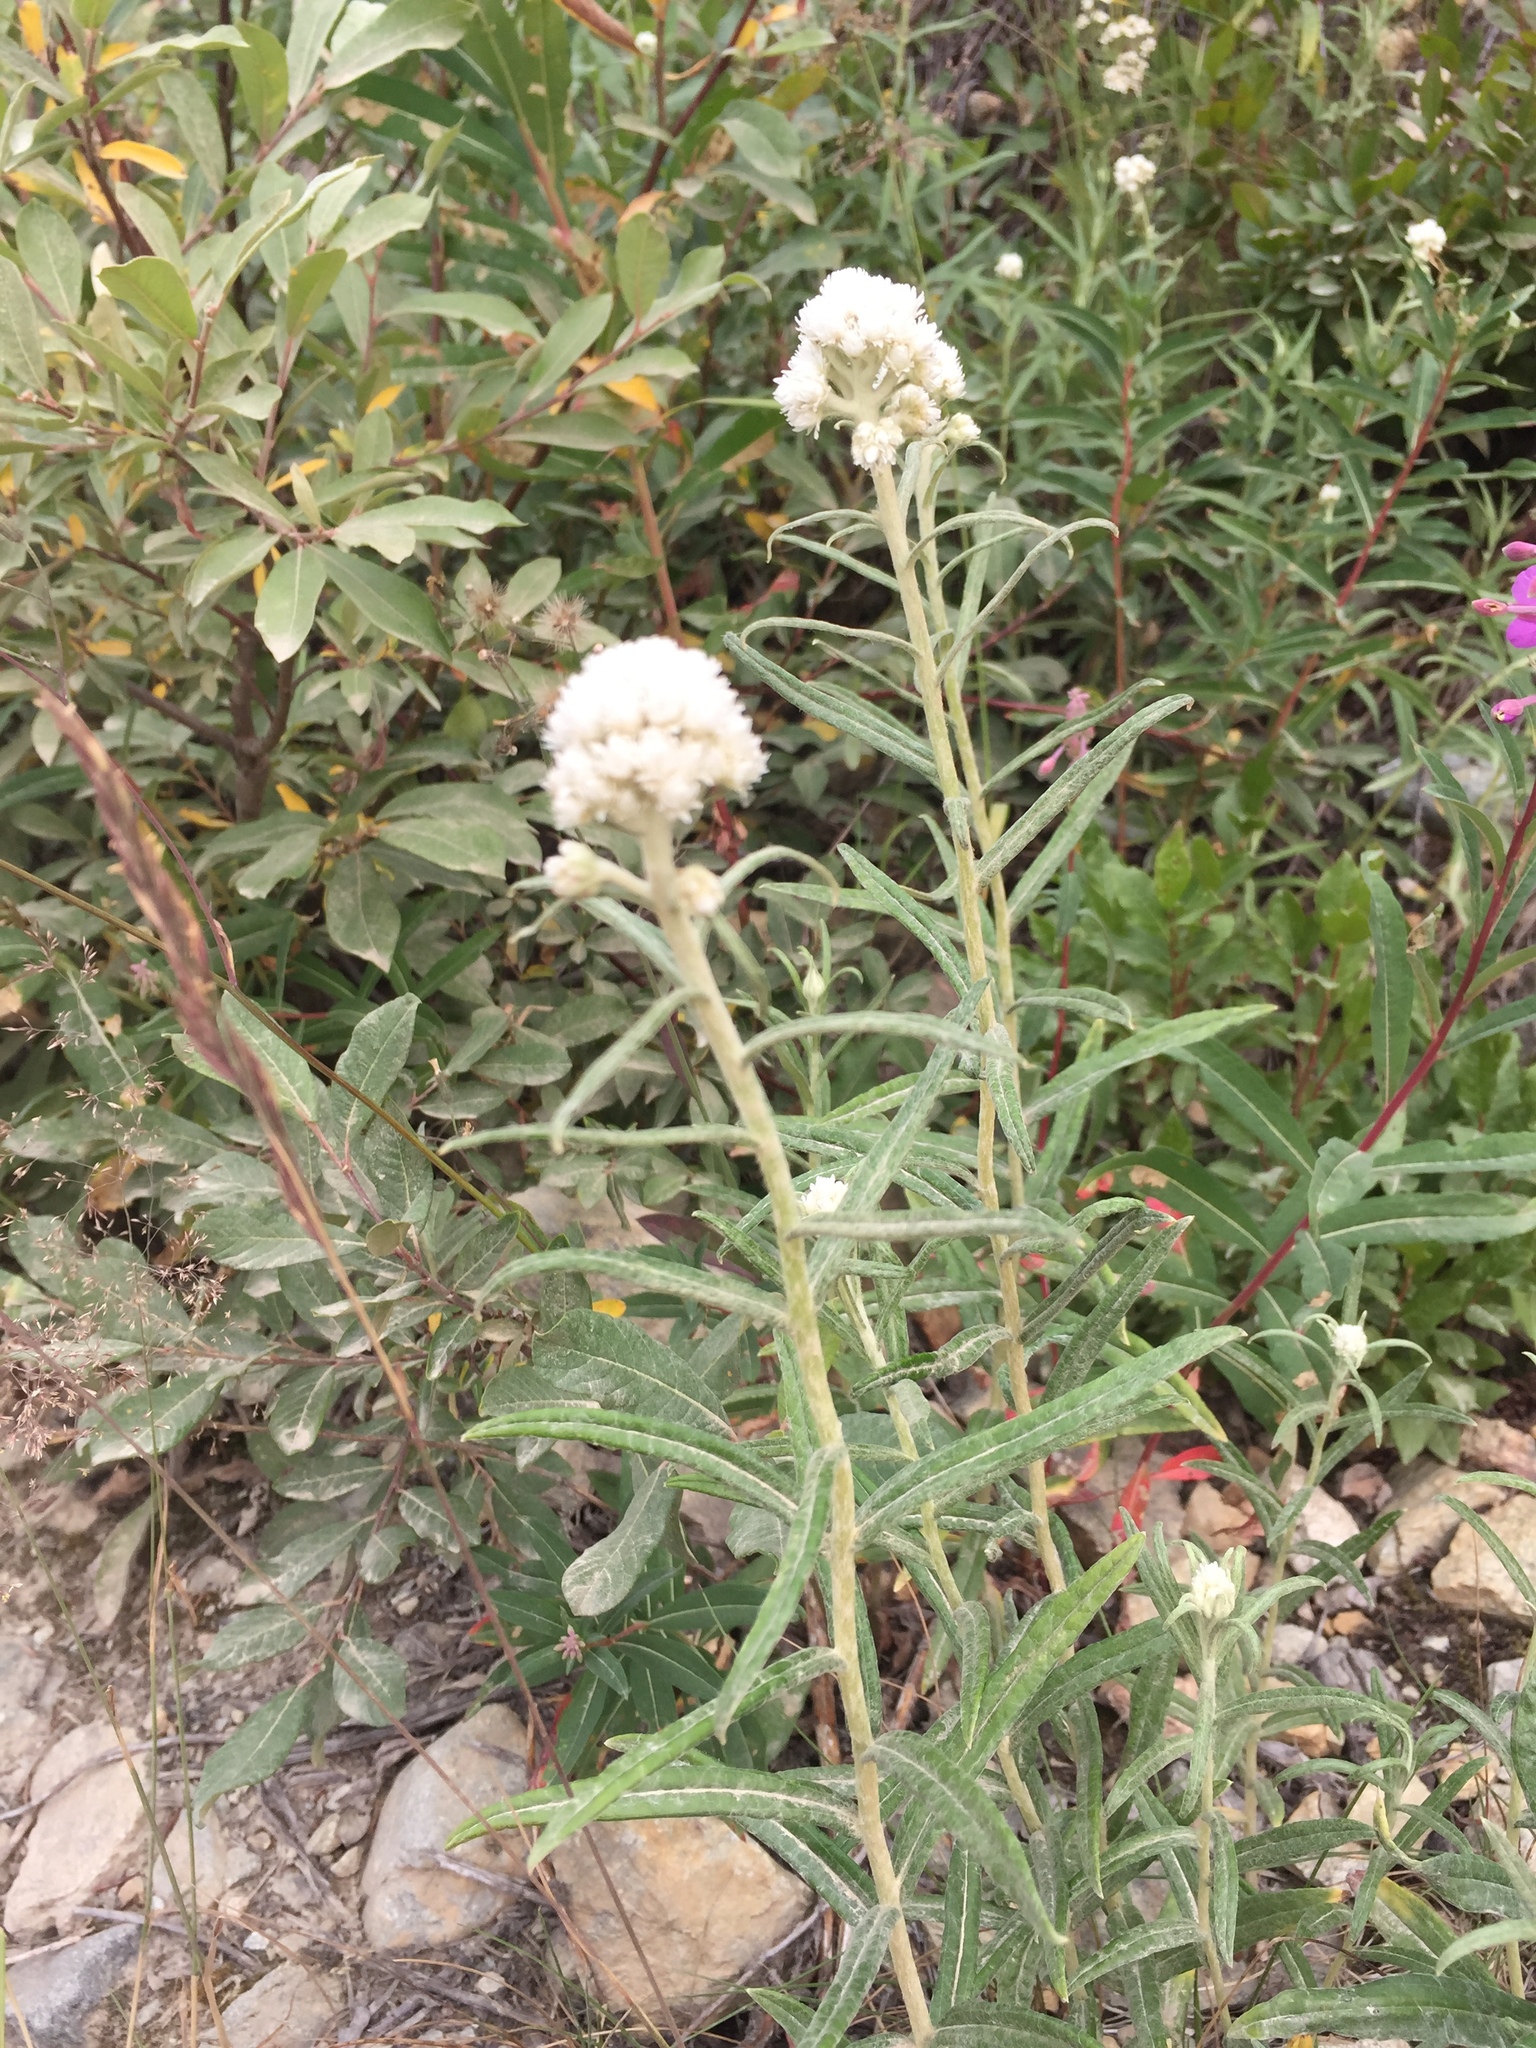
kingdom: Plantae
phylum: Tracheophyta
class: Magnoliopsida
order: Asterales
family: Asteraceae
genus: Anaphalis
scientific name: Anaphalis margaritacea
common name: Pearly everlasting
